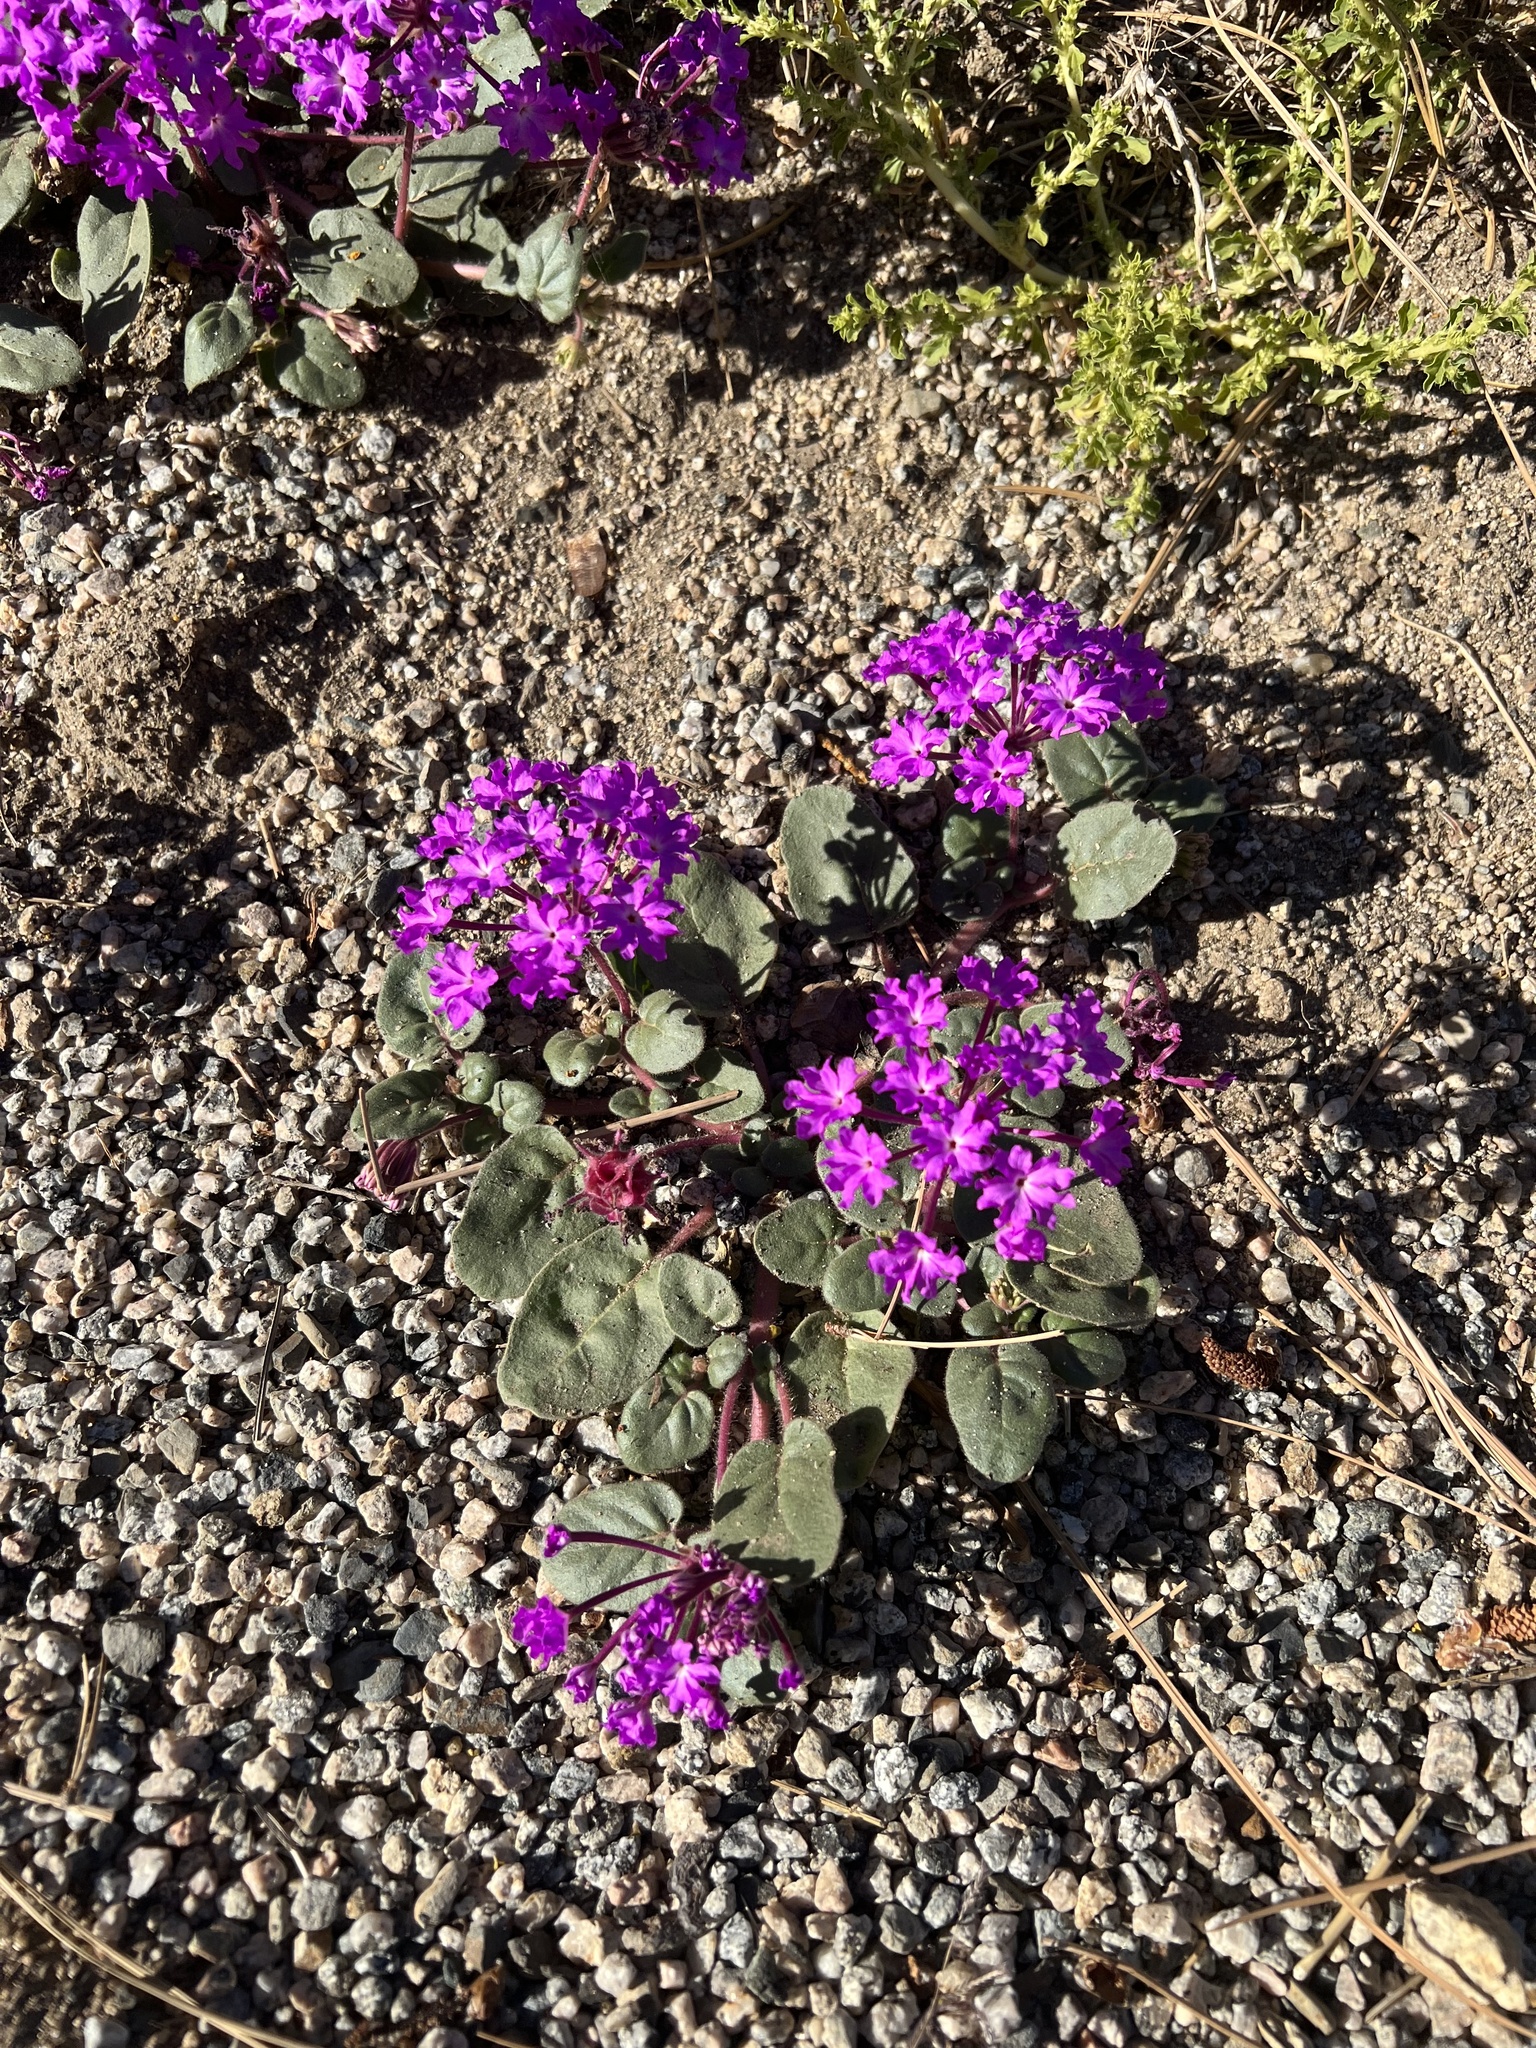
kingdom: Plantae
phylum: Tracheophyta
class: Magnoliopsida
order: Caryophyllales
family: Nyctaginaceae
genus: Abronia
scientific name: Abronia villosa
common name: Desert sand-verbena
